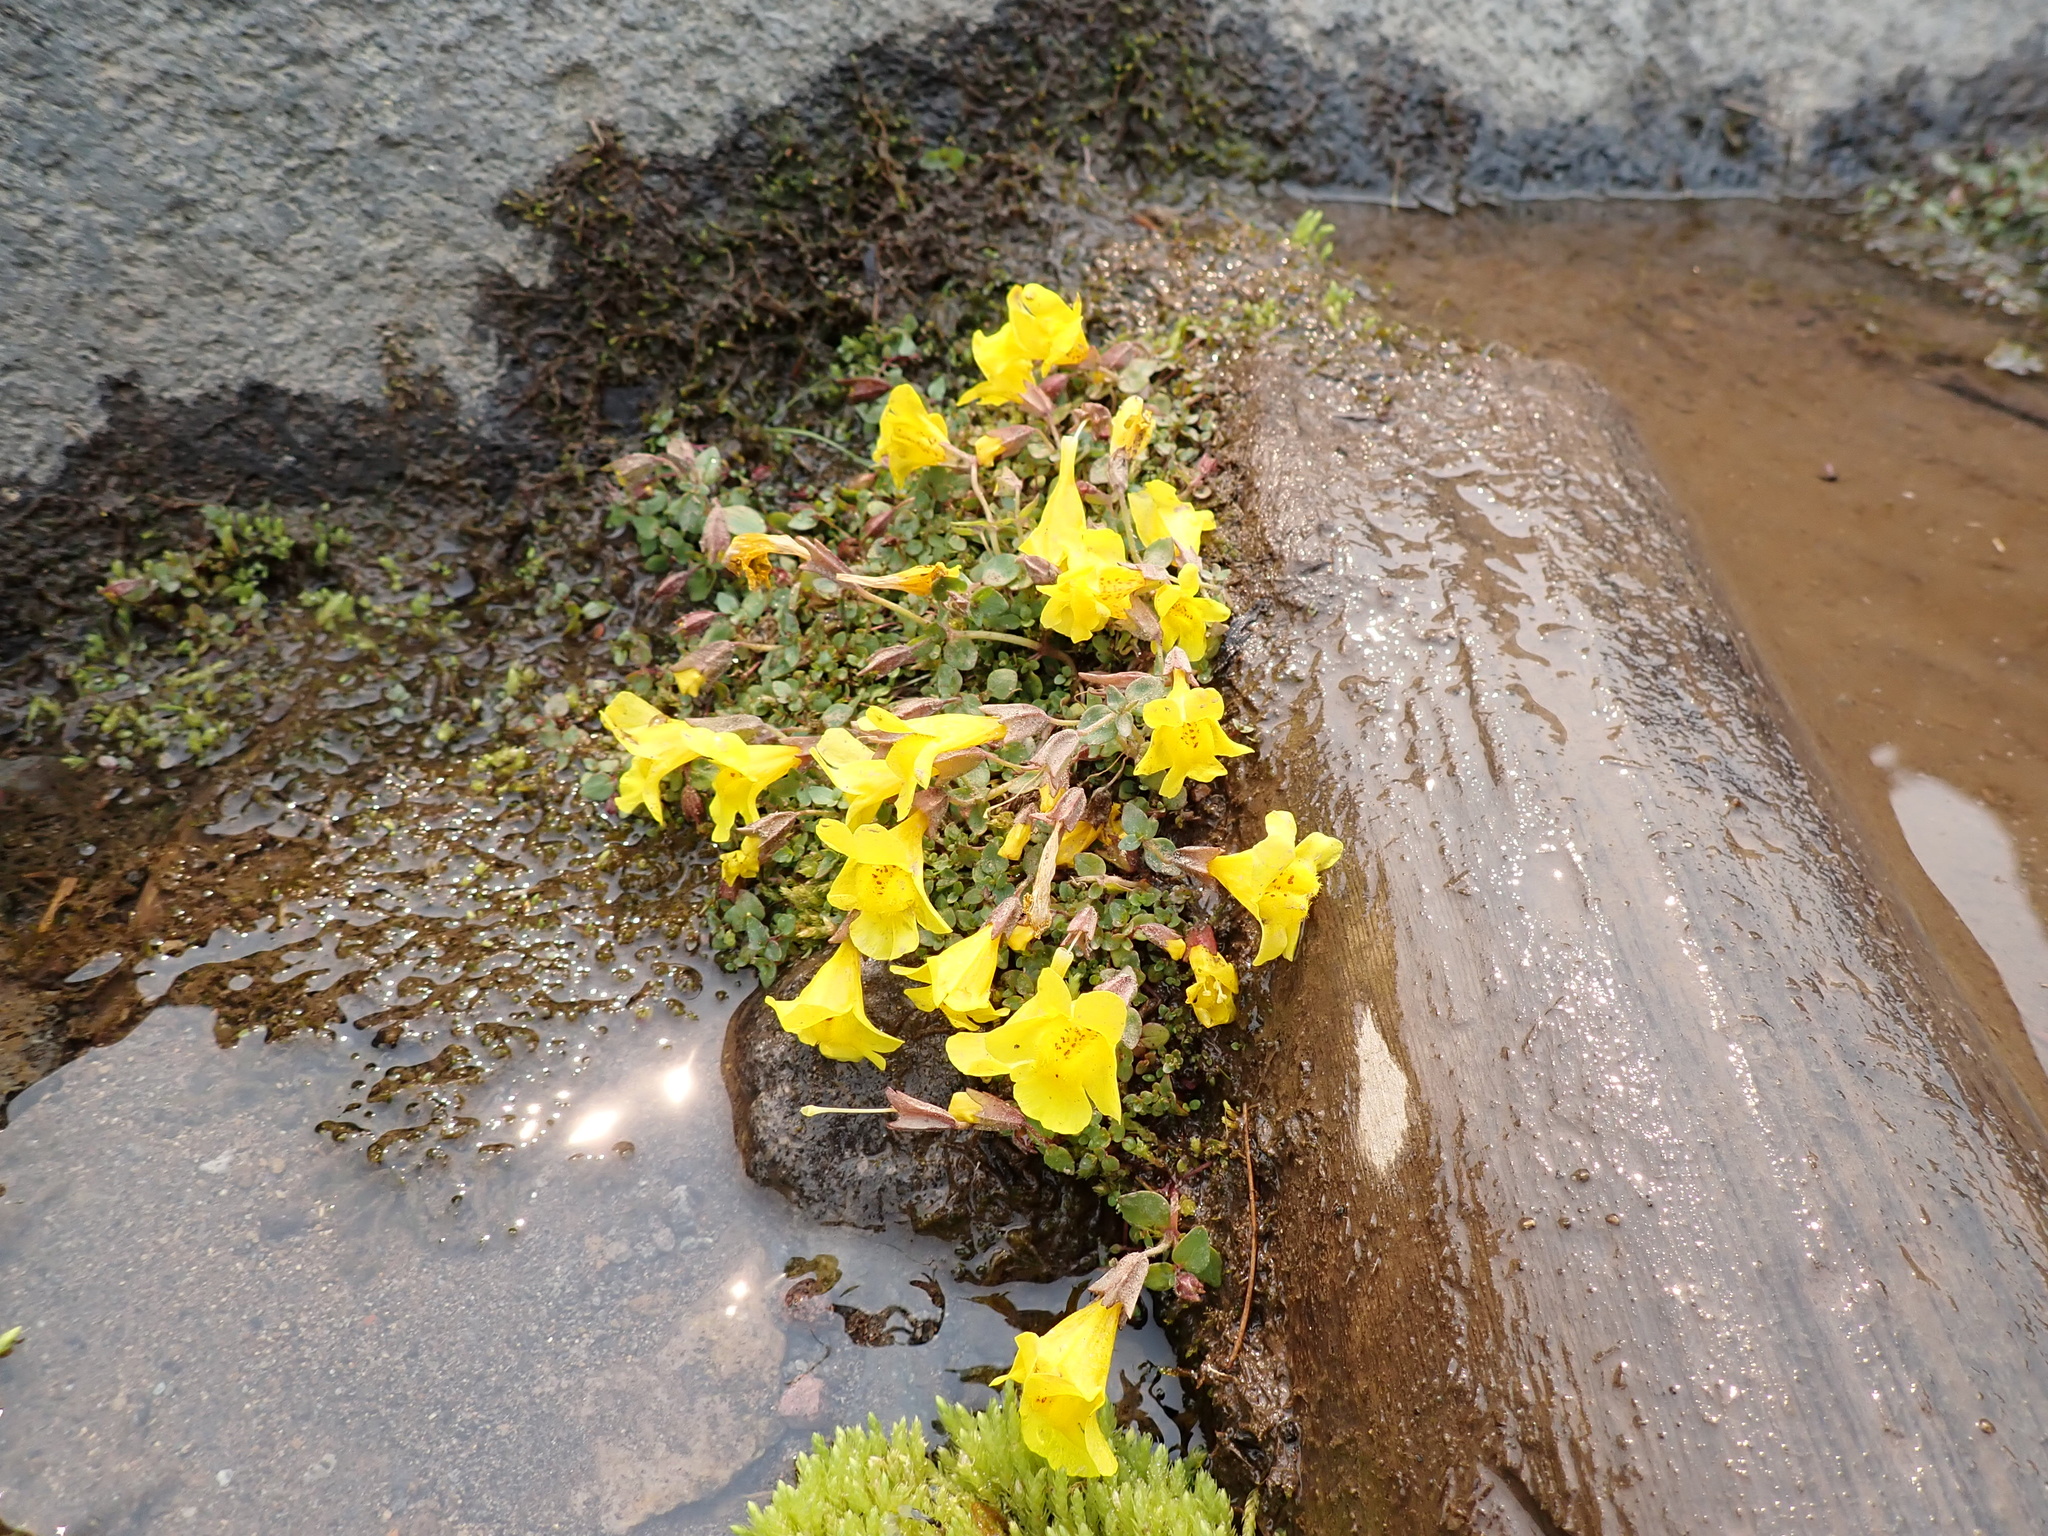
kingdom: Plantae
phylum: Tracheophyta
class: Magnoliopsida
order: Lamiales
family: Phrymaceae
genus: Erythranthe
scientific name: Erythranthe caespitosa
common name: Subalpine monkeyflower
